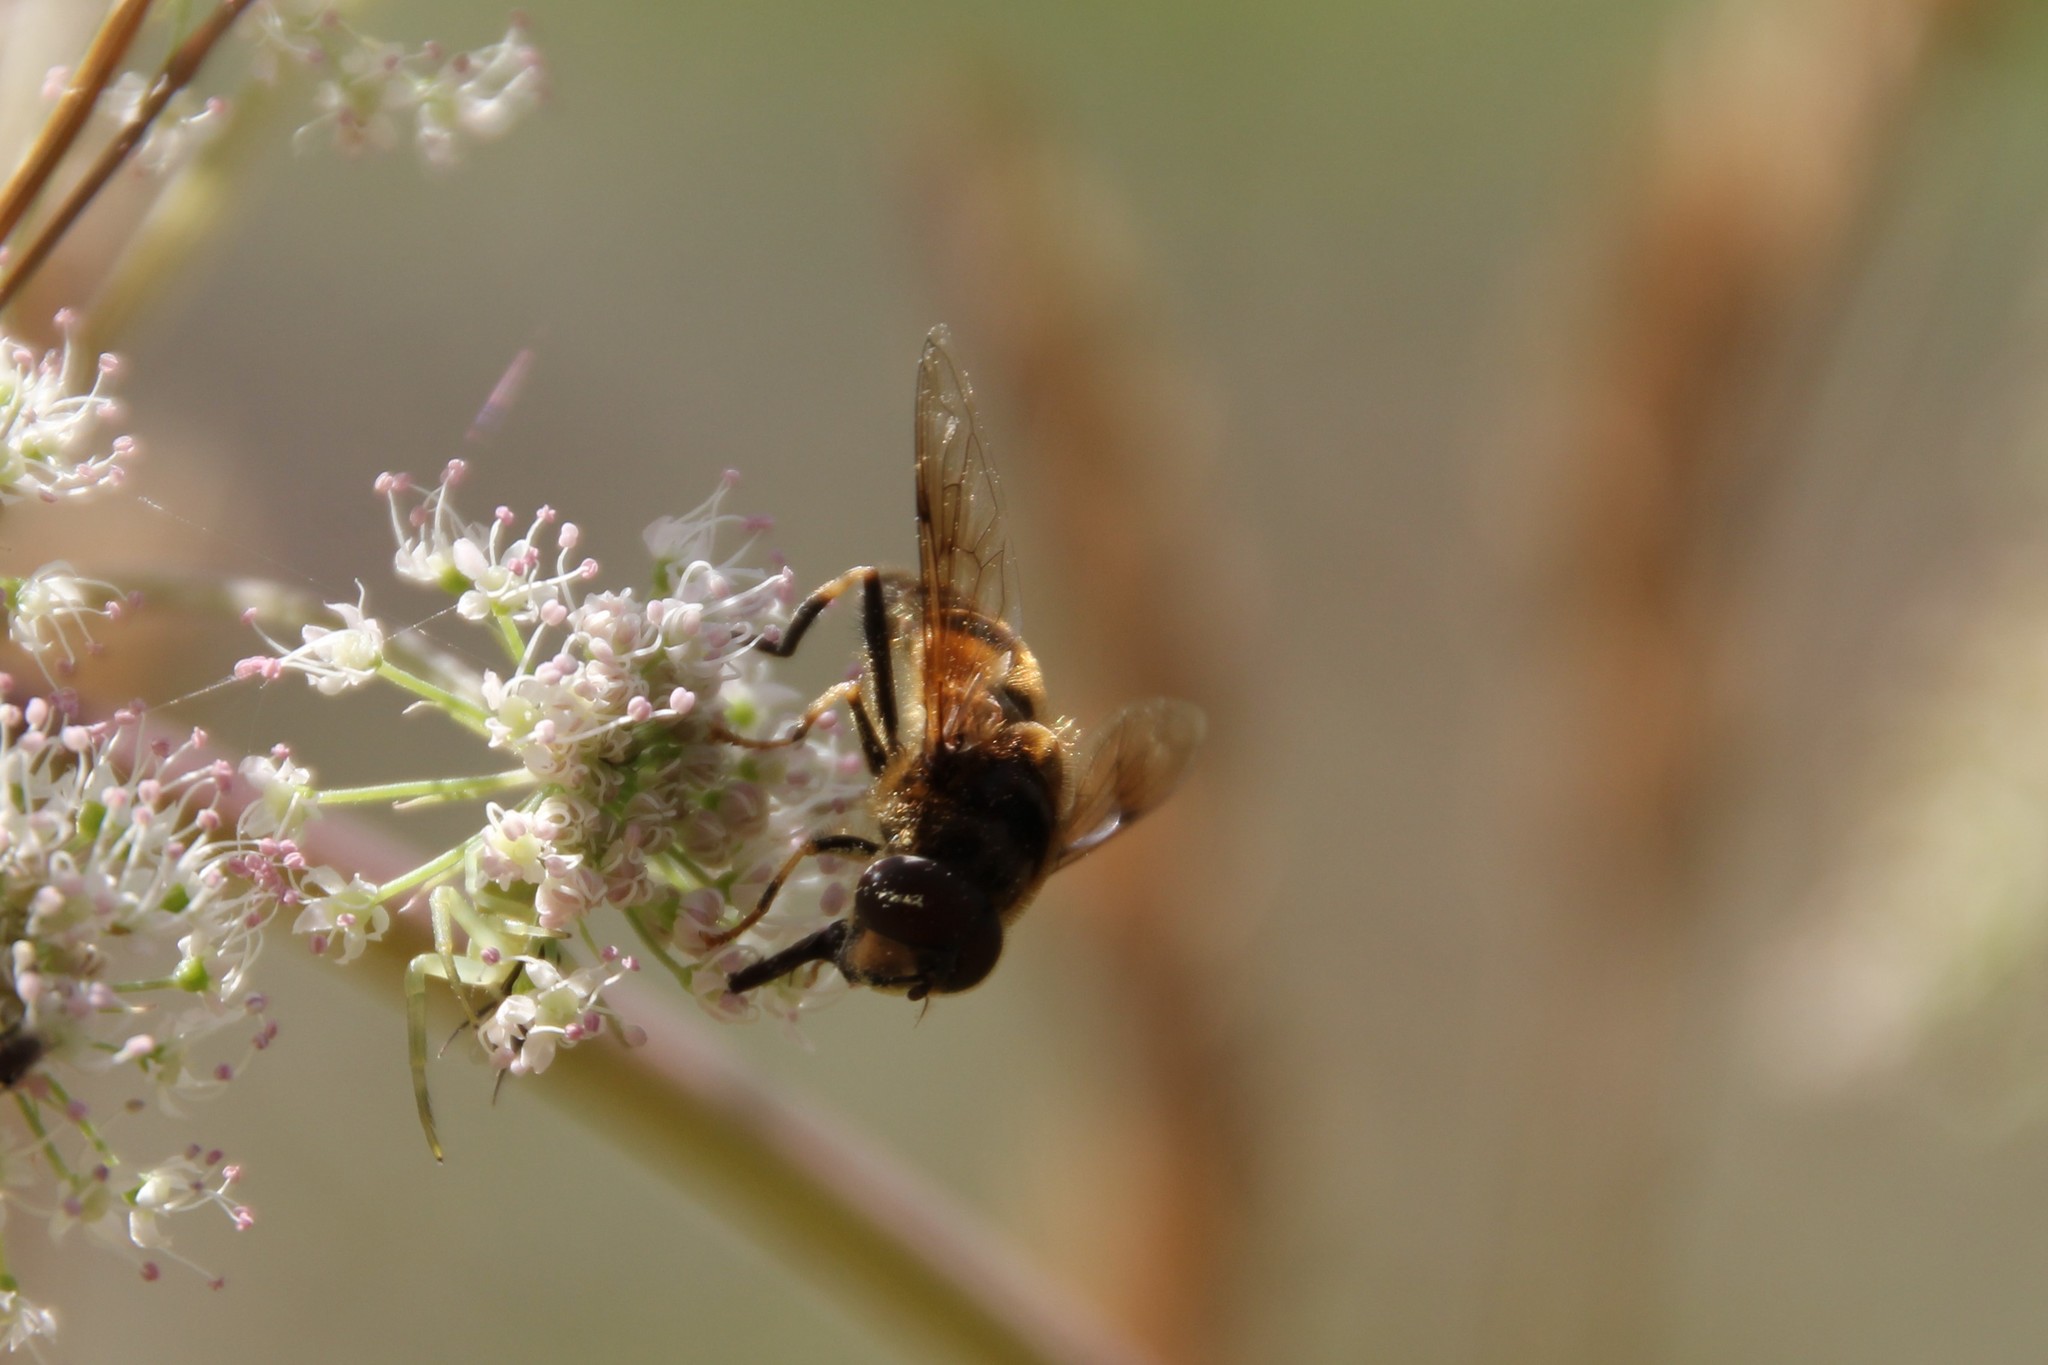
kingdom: Animalia
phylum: Arthropoda
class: Insecta
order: Diptera
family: Syrphidae
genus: Eristalis
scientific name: Eristalis pertinax
